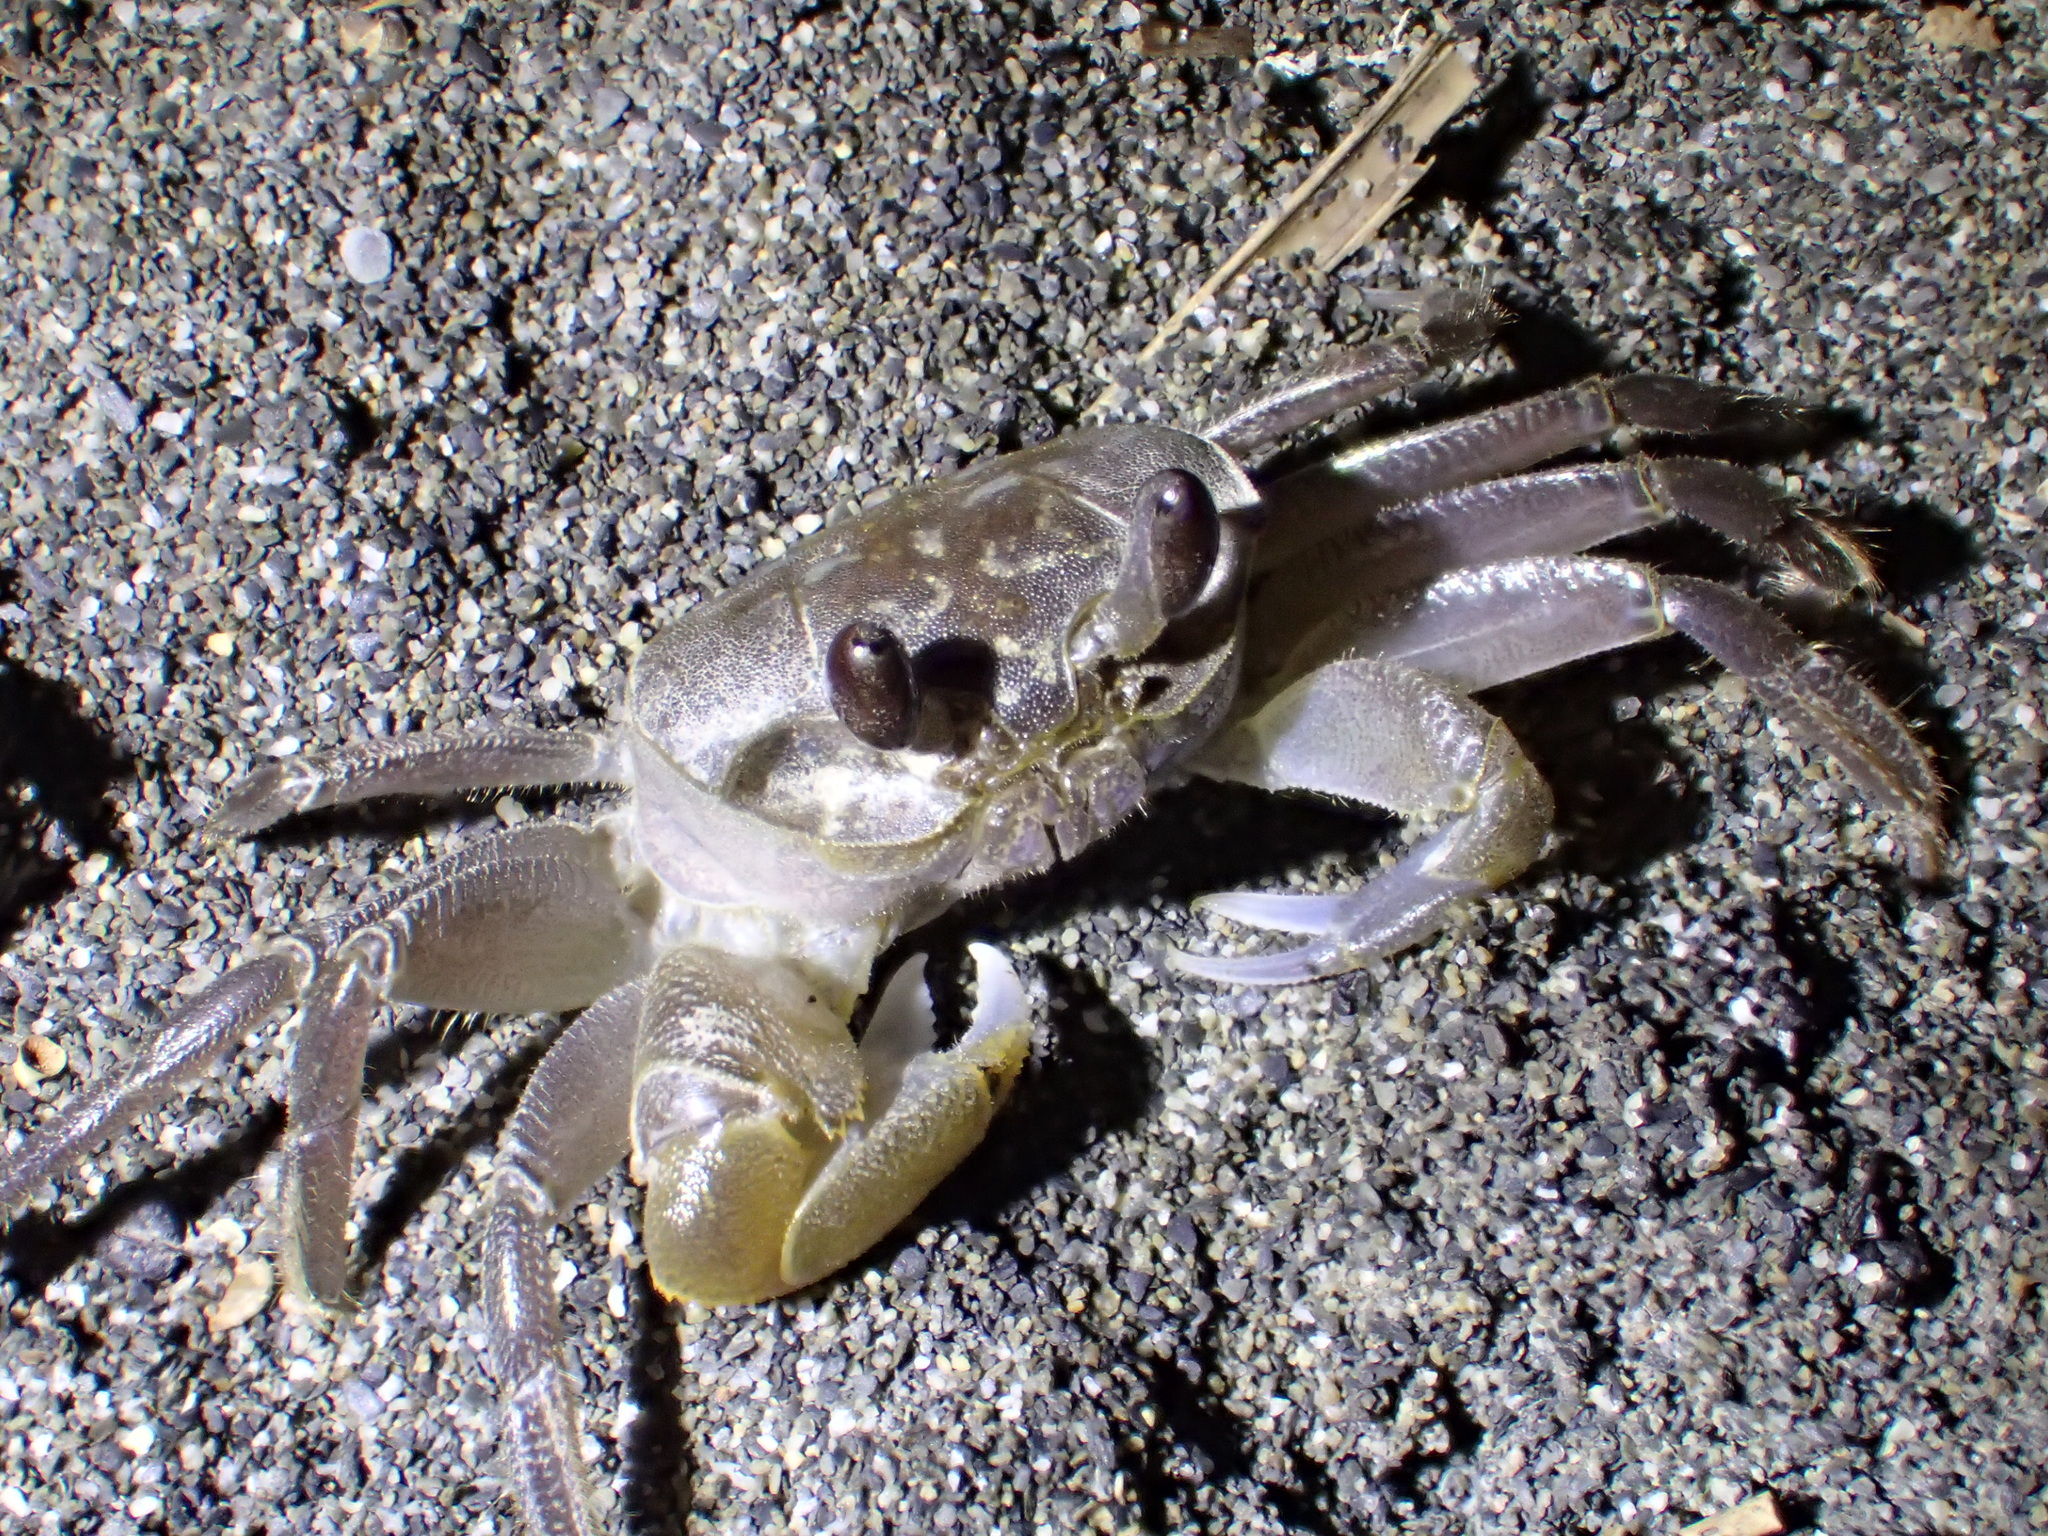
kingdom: Animalia
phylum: Arthropoda
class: Malacostraca
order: Decapoda
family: Ocypodidae
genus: Ocypode
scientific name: Ocypode sinensis
